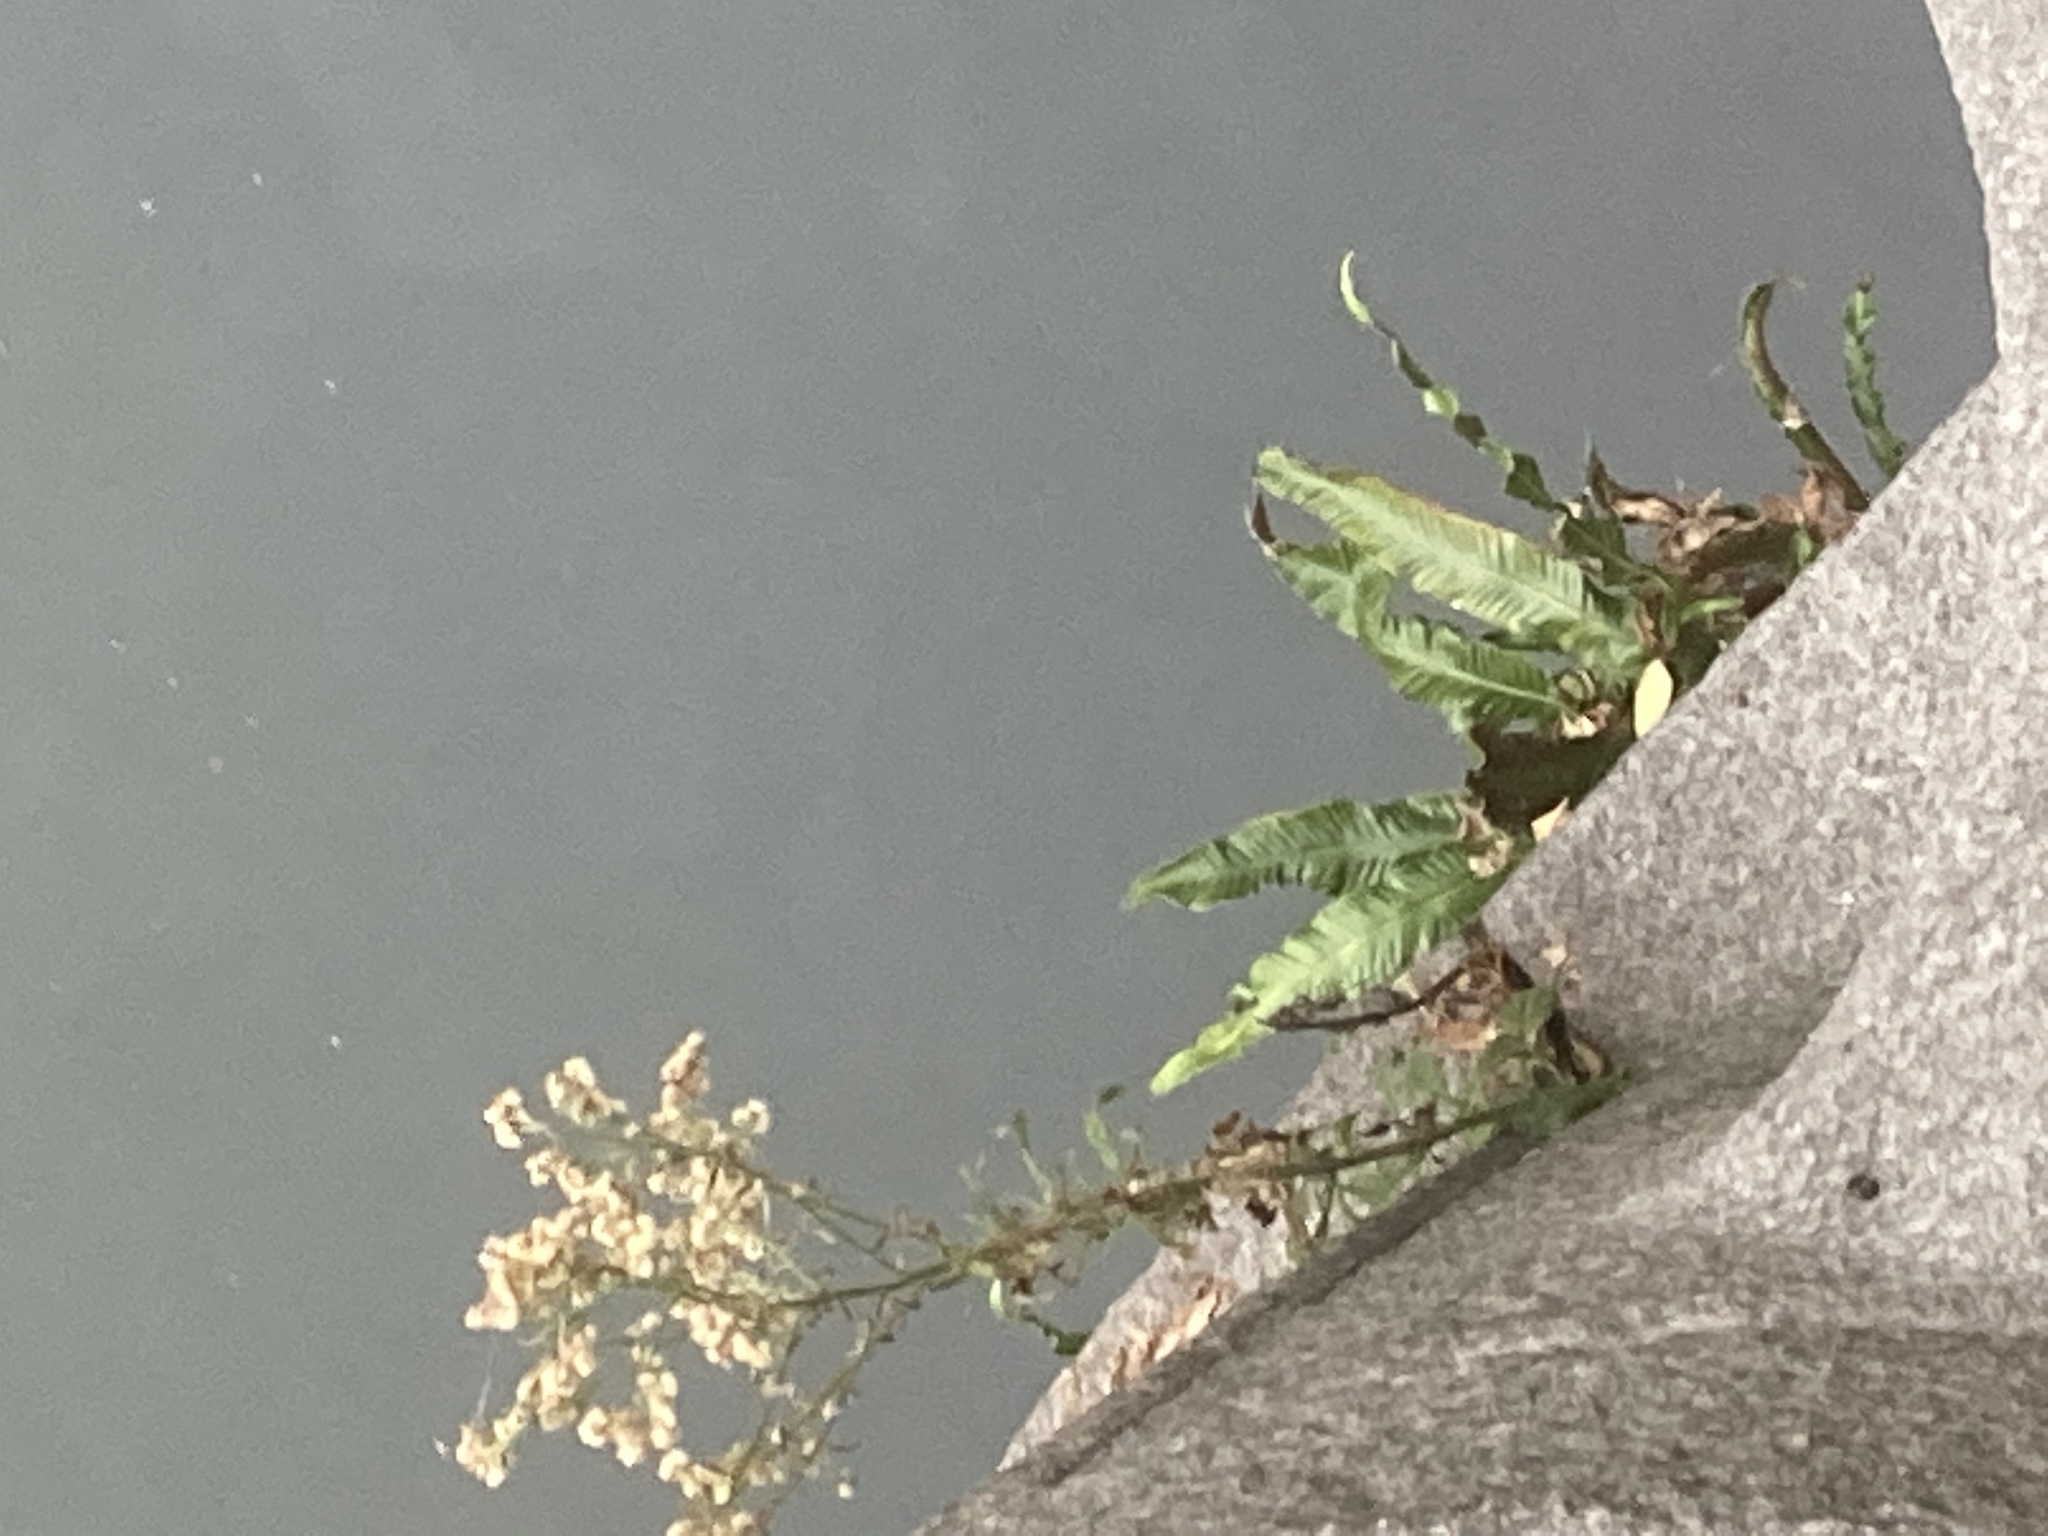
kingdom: Plantae
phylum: Tracheophyta
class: Polypodiopsida
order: Polypodiales
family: Aspleniaceae
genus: Asplenium
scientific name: Asplenium scolopendrium
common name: Hart's-tongue fern
